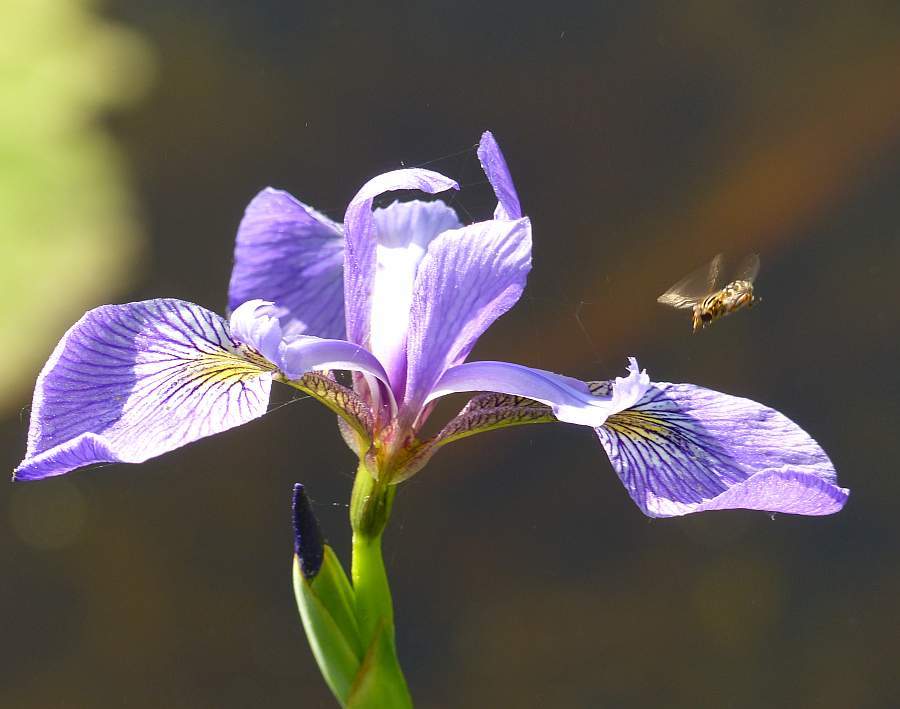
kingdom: Plantae
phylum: Tracheophyta
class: Liliopsida
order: Asparagales
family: Iridaceae
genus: Iris
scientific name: Iris versicolor
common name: Purple iris
